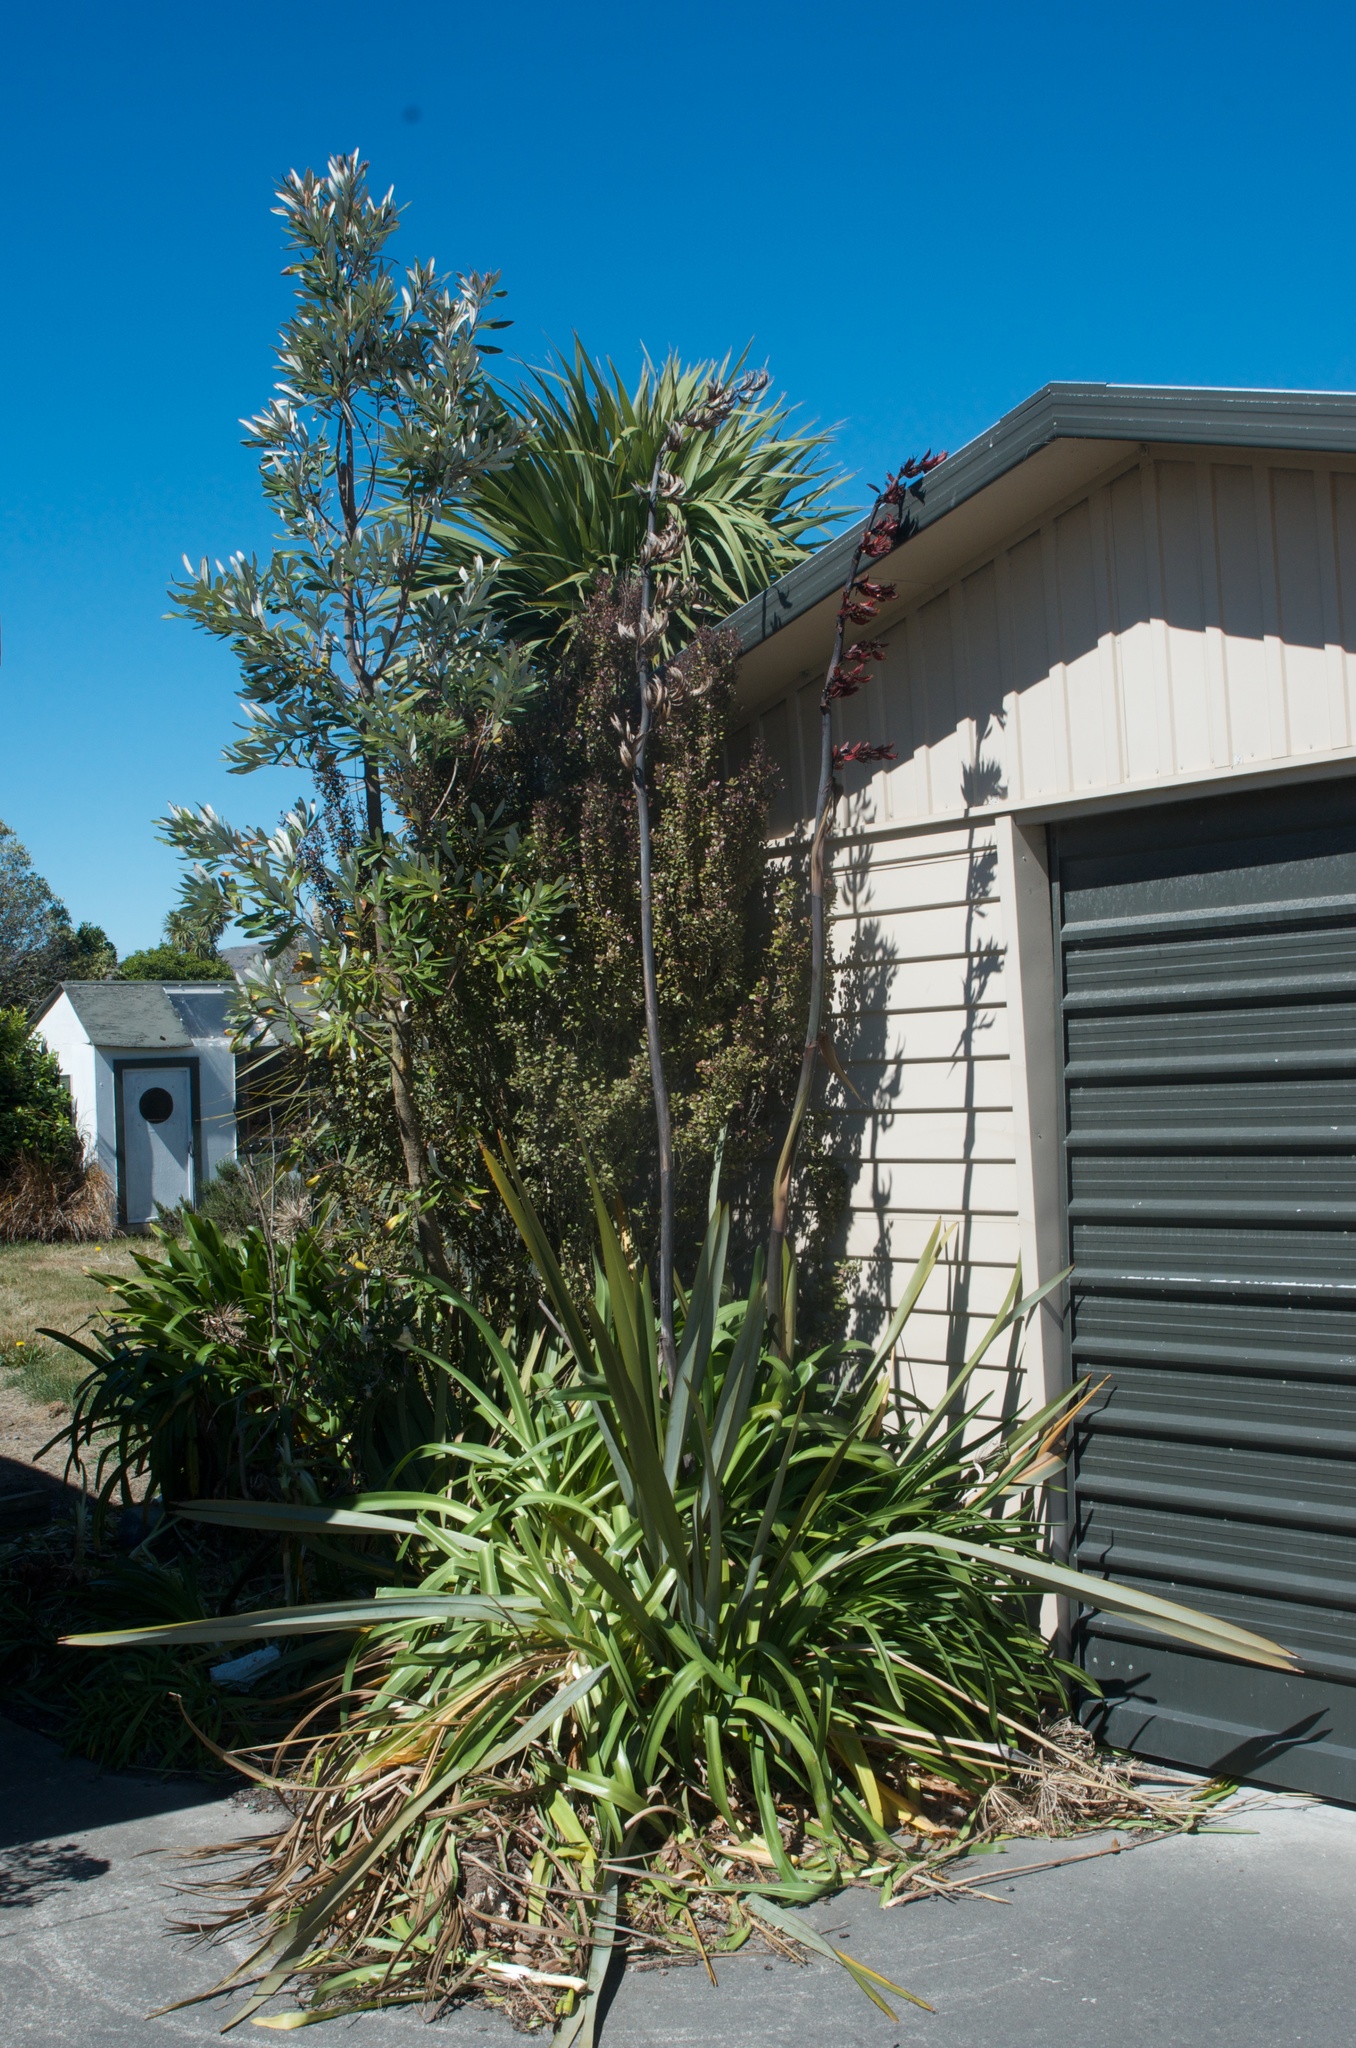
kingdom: Plantae
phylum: Tracheophyta
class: Liliopsida
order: Asparagales
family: Asphodelaceae
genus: Phormium
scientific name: Phormium tenax
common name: New zealand flax
